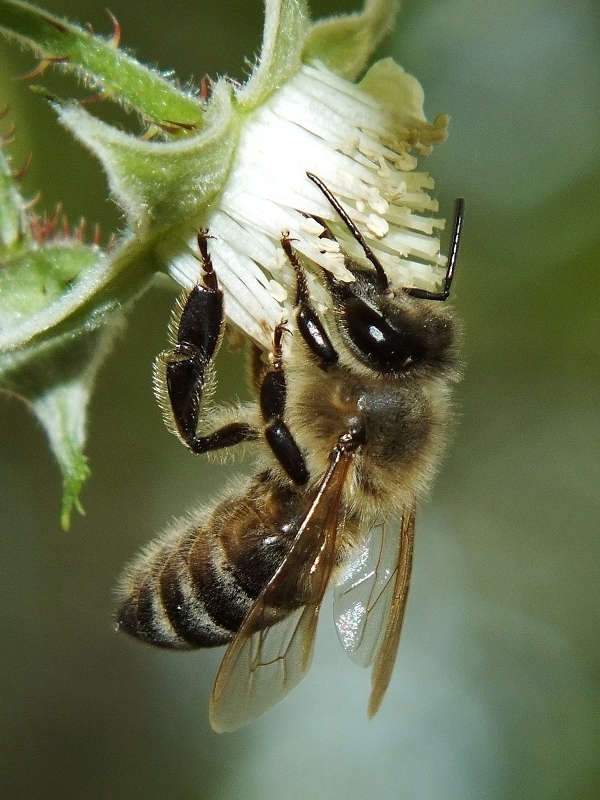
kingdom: Animalia
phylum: Arthropoda
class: Insecta
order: Hymenoptera
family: Apidae
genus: Apis
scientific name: Apis mellifera
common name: Honey bee
